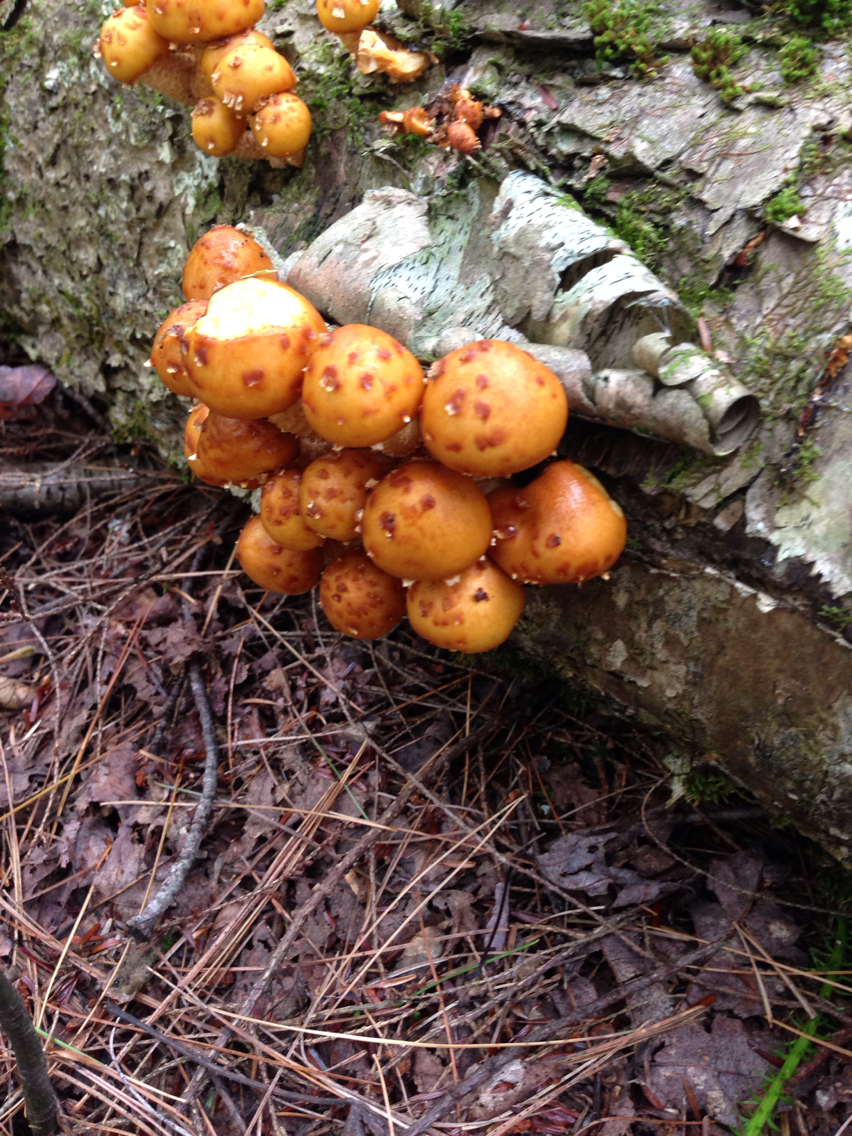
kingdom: Fungi
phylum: Basidiomycota
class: Agaricomycetes
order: Agaricales
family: Strophariaceae
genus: Pholiota
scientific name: Pholiota aurivella
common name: Golden scalycap
